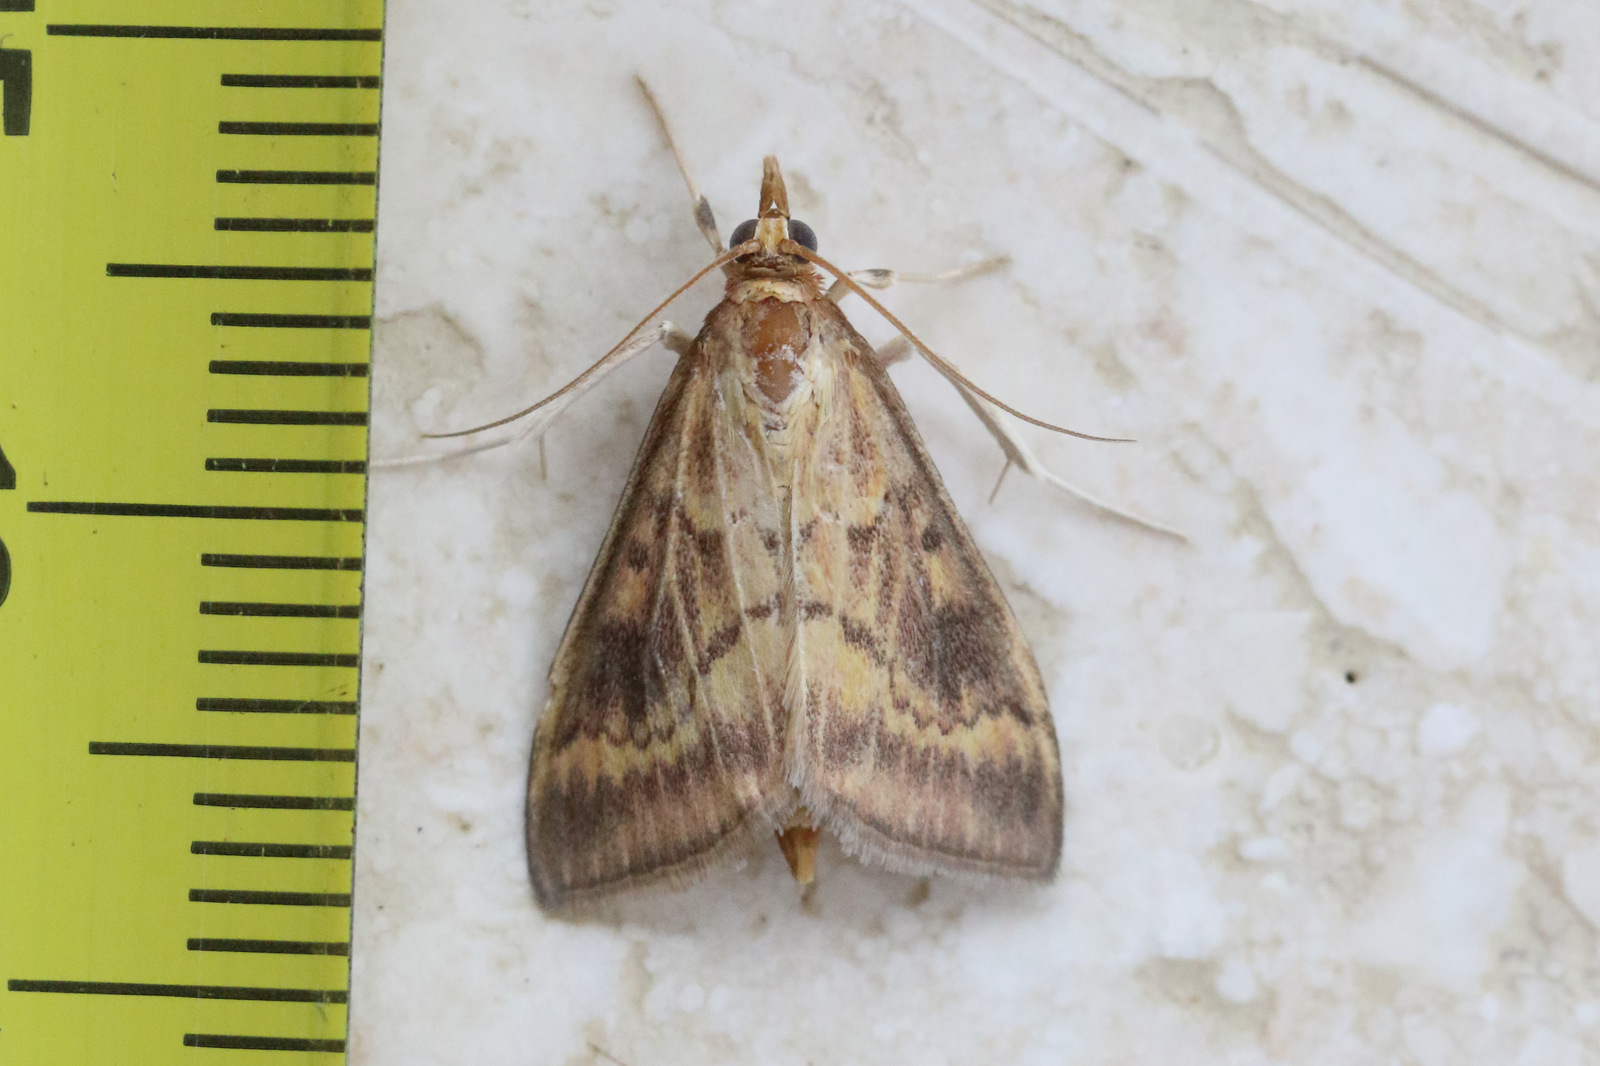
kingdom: Animalia
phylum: Arthropoda
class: Insecta
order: Lepidoptera
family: Crambidae
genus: Ostrinia
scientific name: Ostrinia furnacalis
